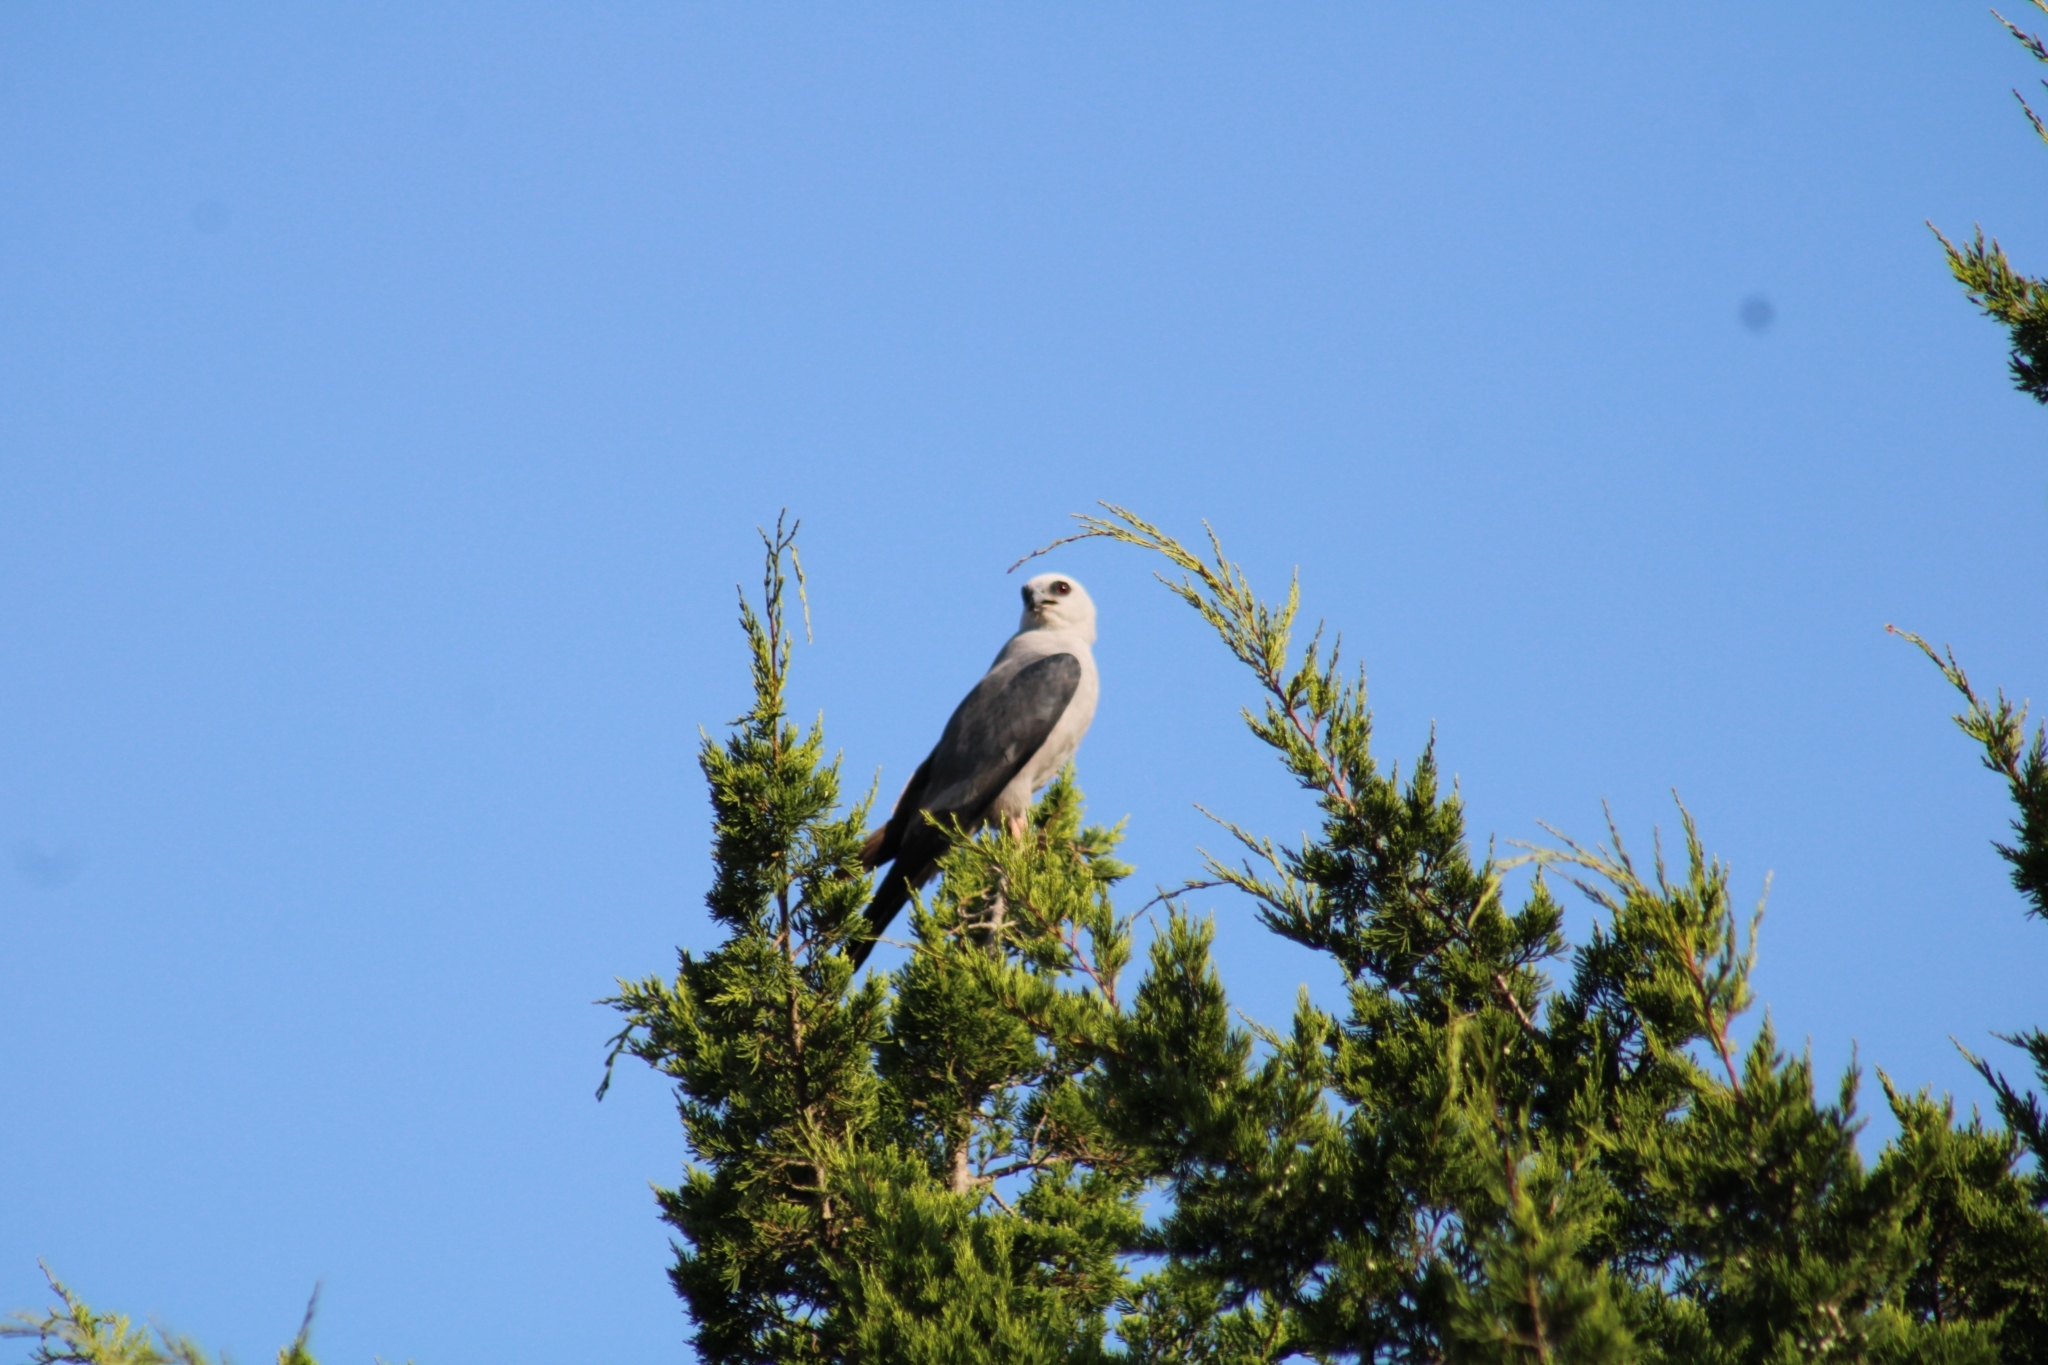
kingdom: Animalia
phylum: Chordata
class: Aves
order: Accipitriformes
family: Accipitridae
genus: Ictinia
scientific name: Ictinia mississippiensis
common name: Mississippi kite
